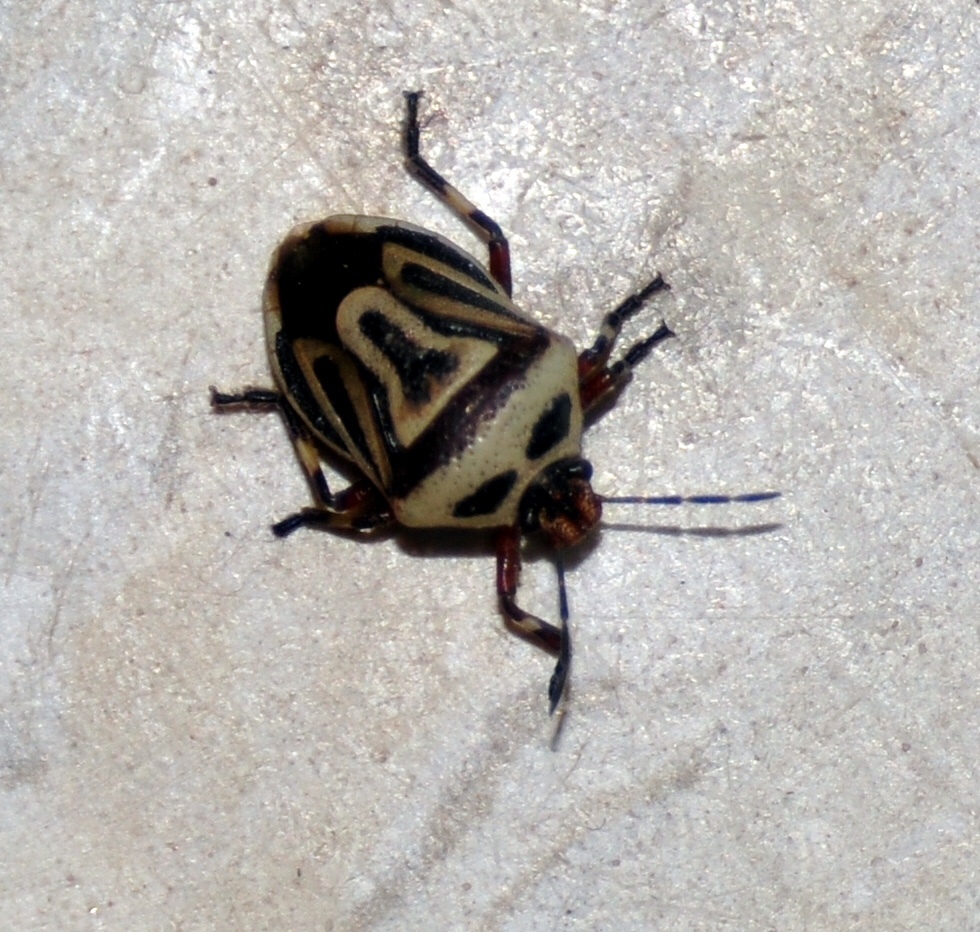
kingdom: Animalia
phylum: Arthropoda
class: Insecta
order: Hemiptera
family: Pentatomidae
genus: Perillus
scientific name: Perillus bioculatus
